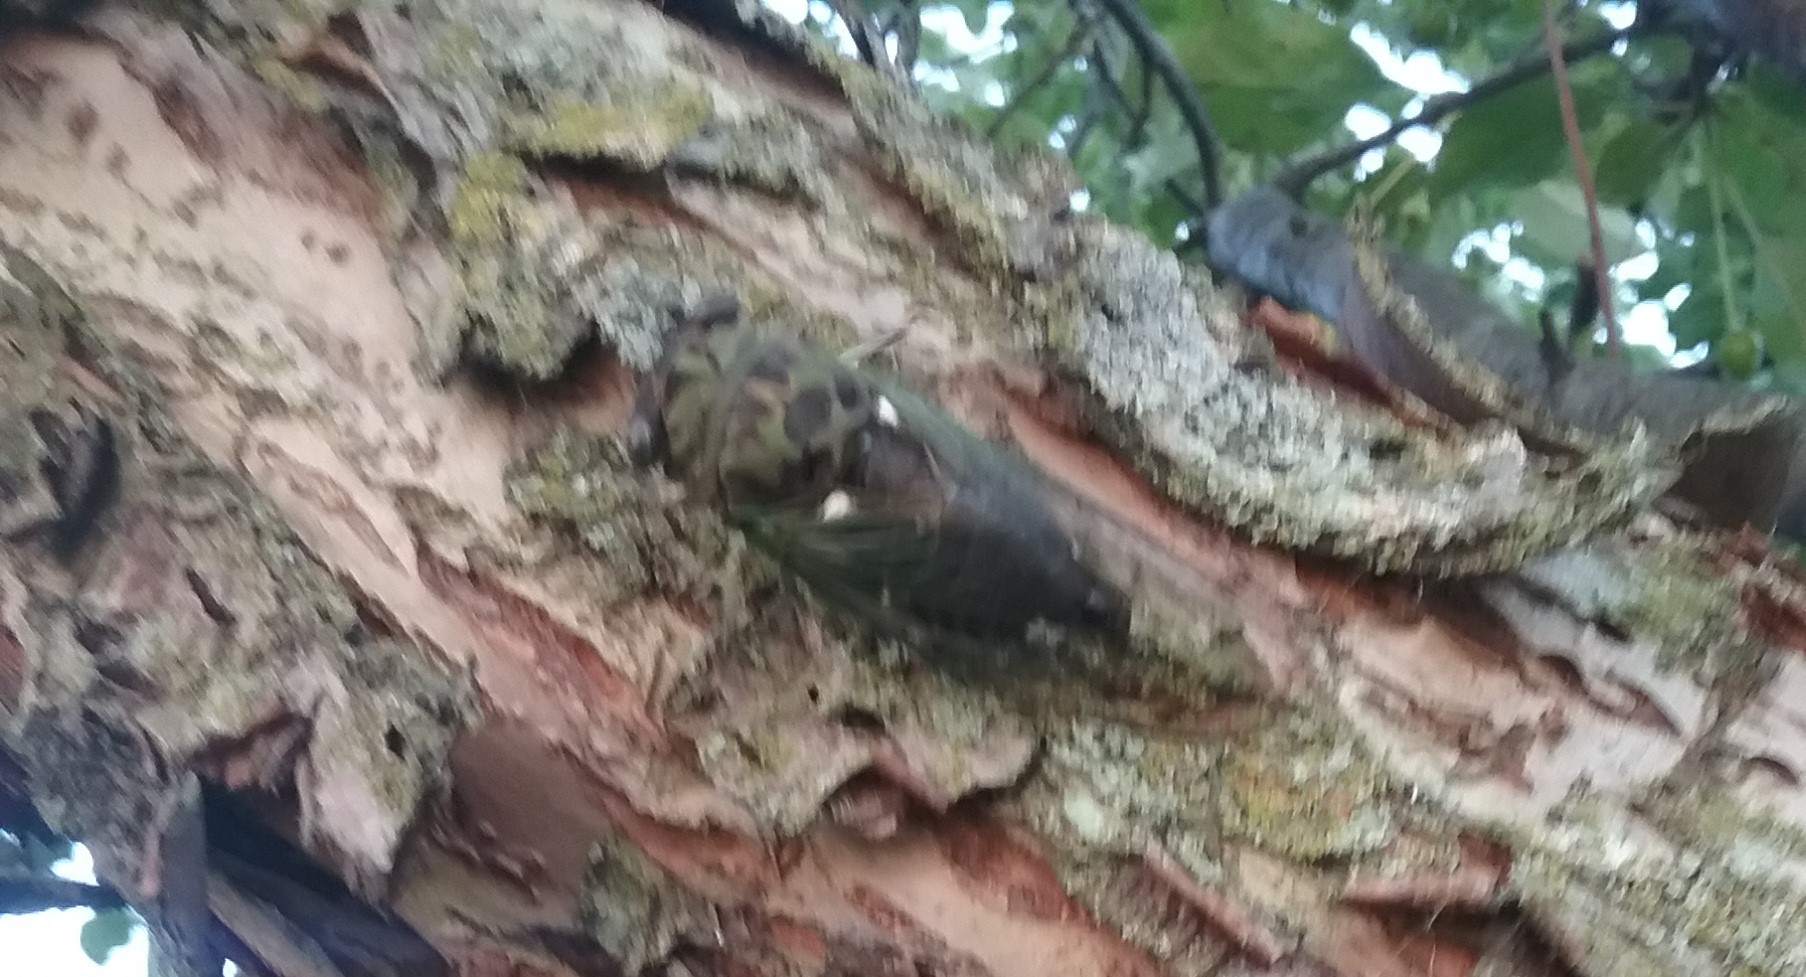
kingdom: Animalia
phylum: Arthropoda
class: Insecta
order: Hemiptera
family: Cicadidae
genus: Neotibicen
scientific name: Neotibicen pruinosus
